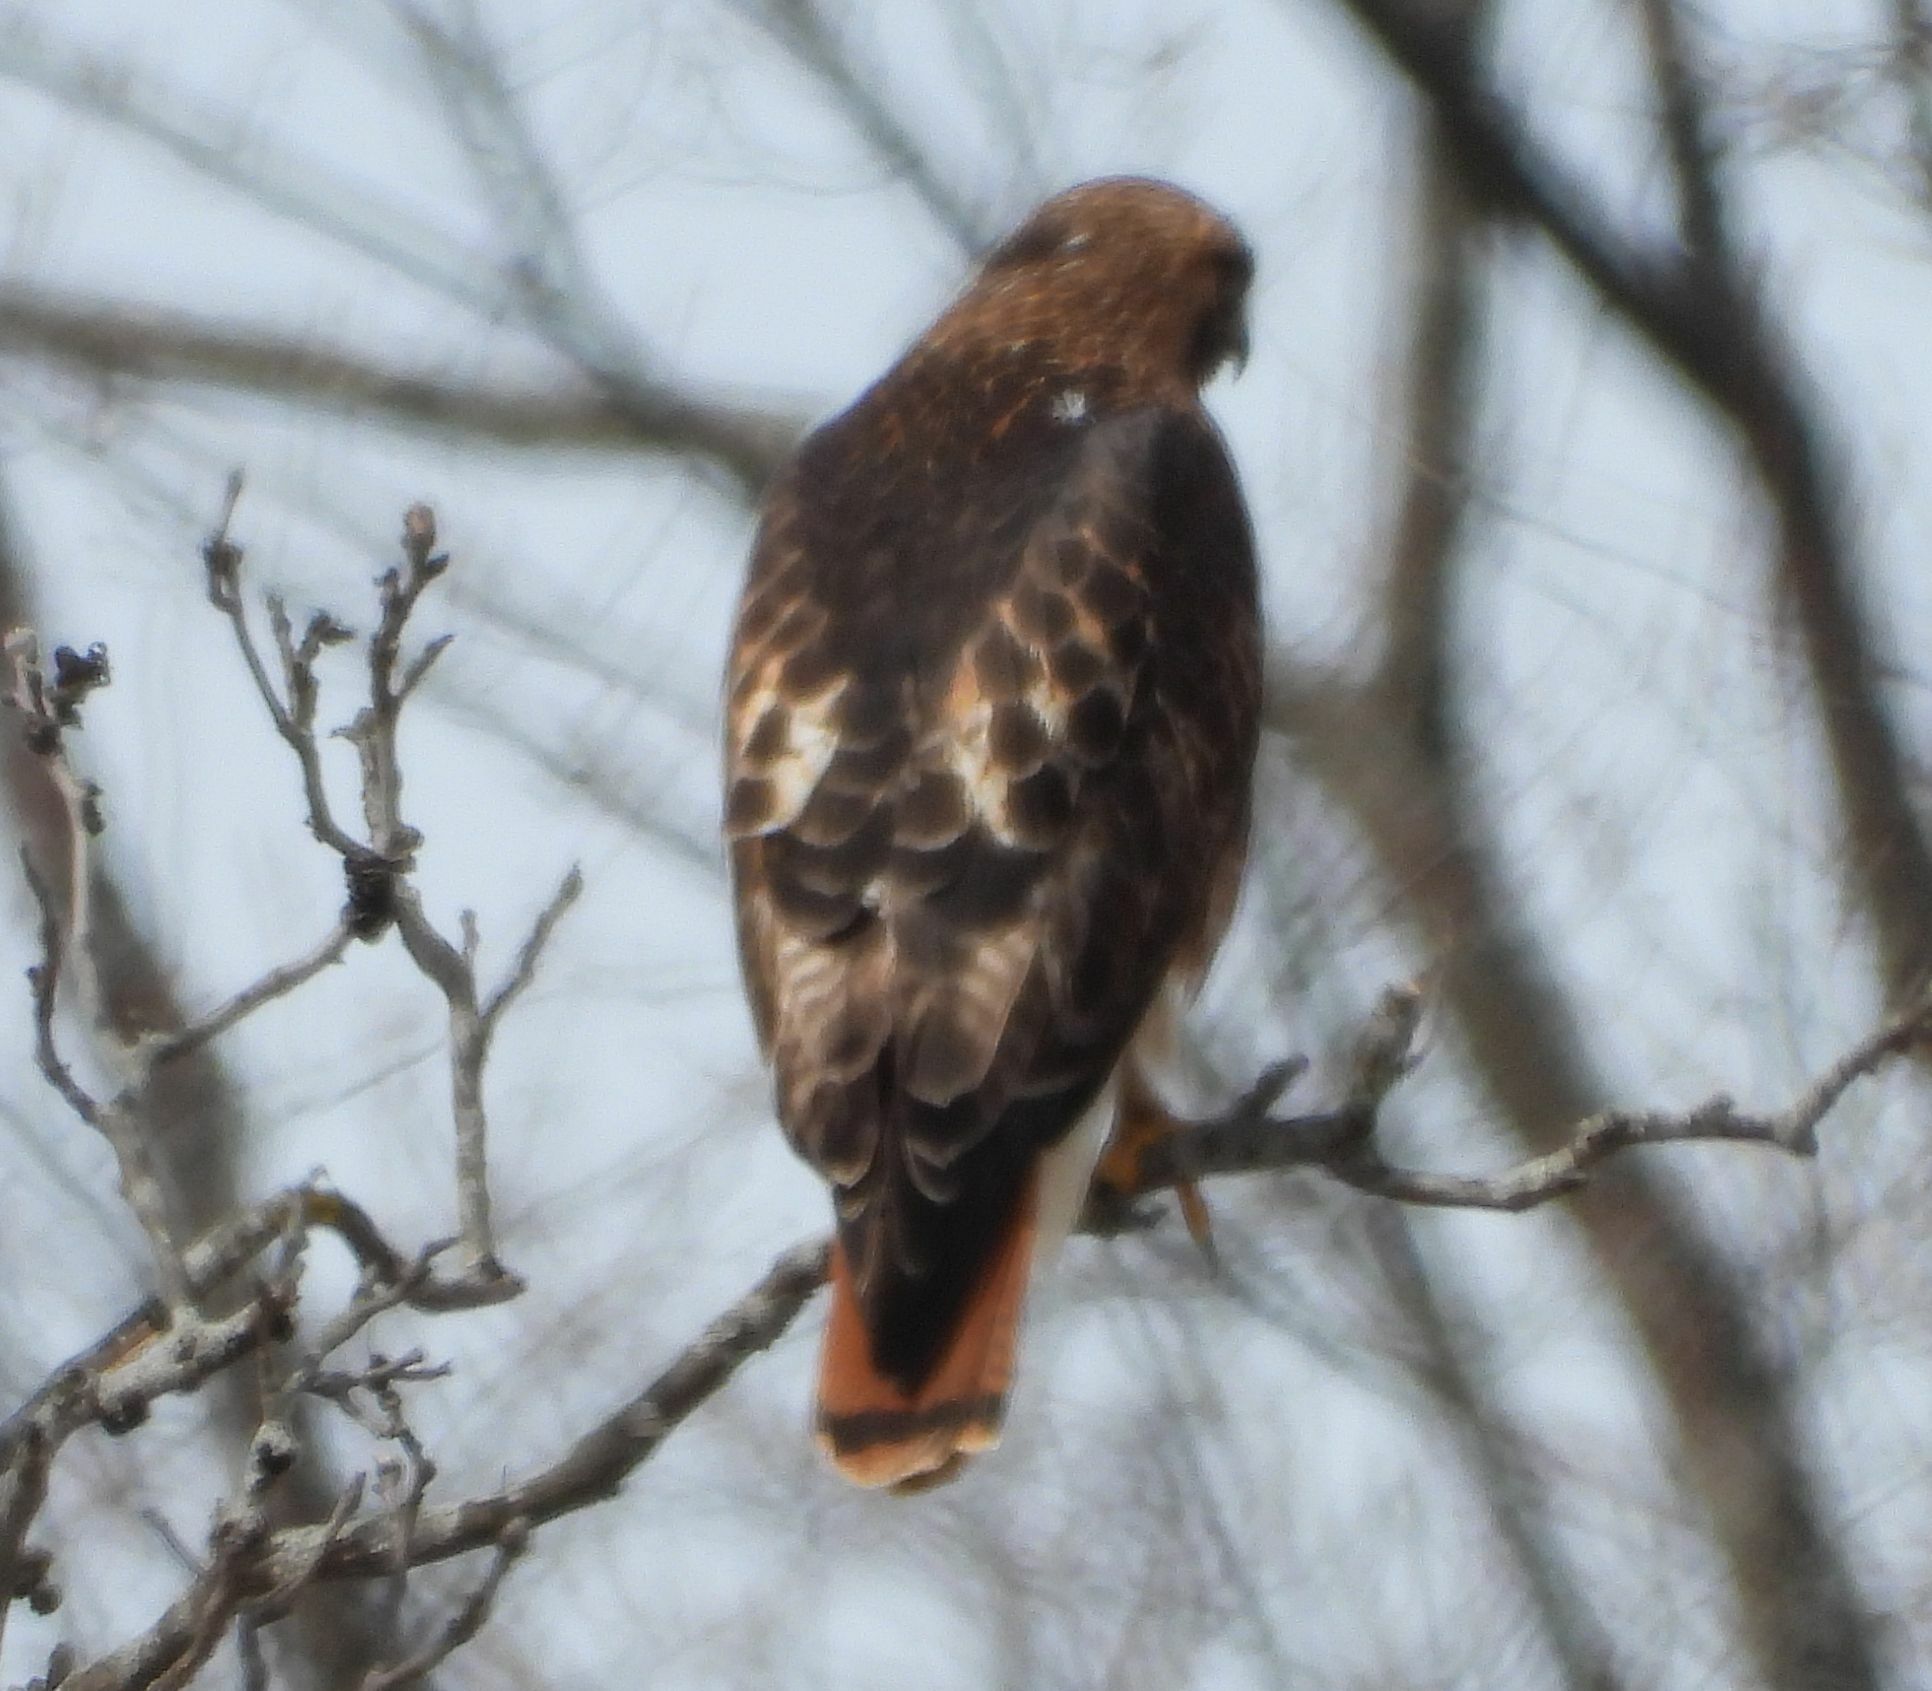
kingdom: Animalia
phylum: Chordata
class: Aves
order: Accipitriformes
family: Accipitridae
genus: Buteo
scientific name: Buteo jamaicensis
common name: Red-tailed hawk
